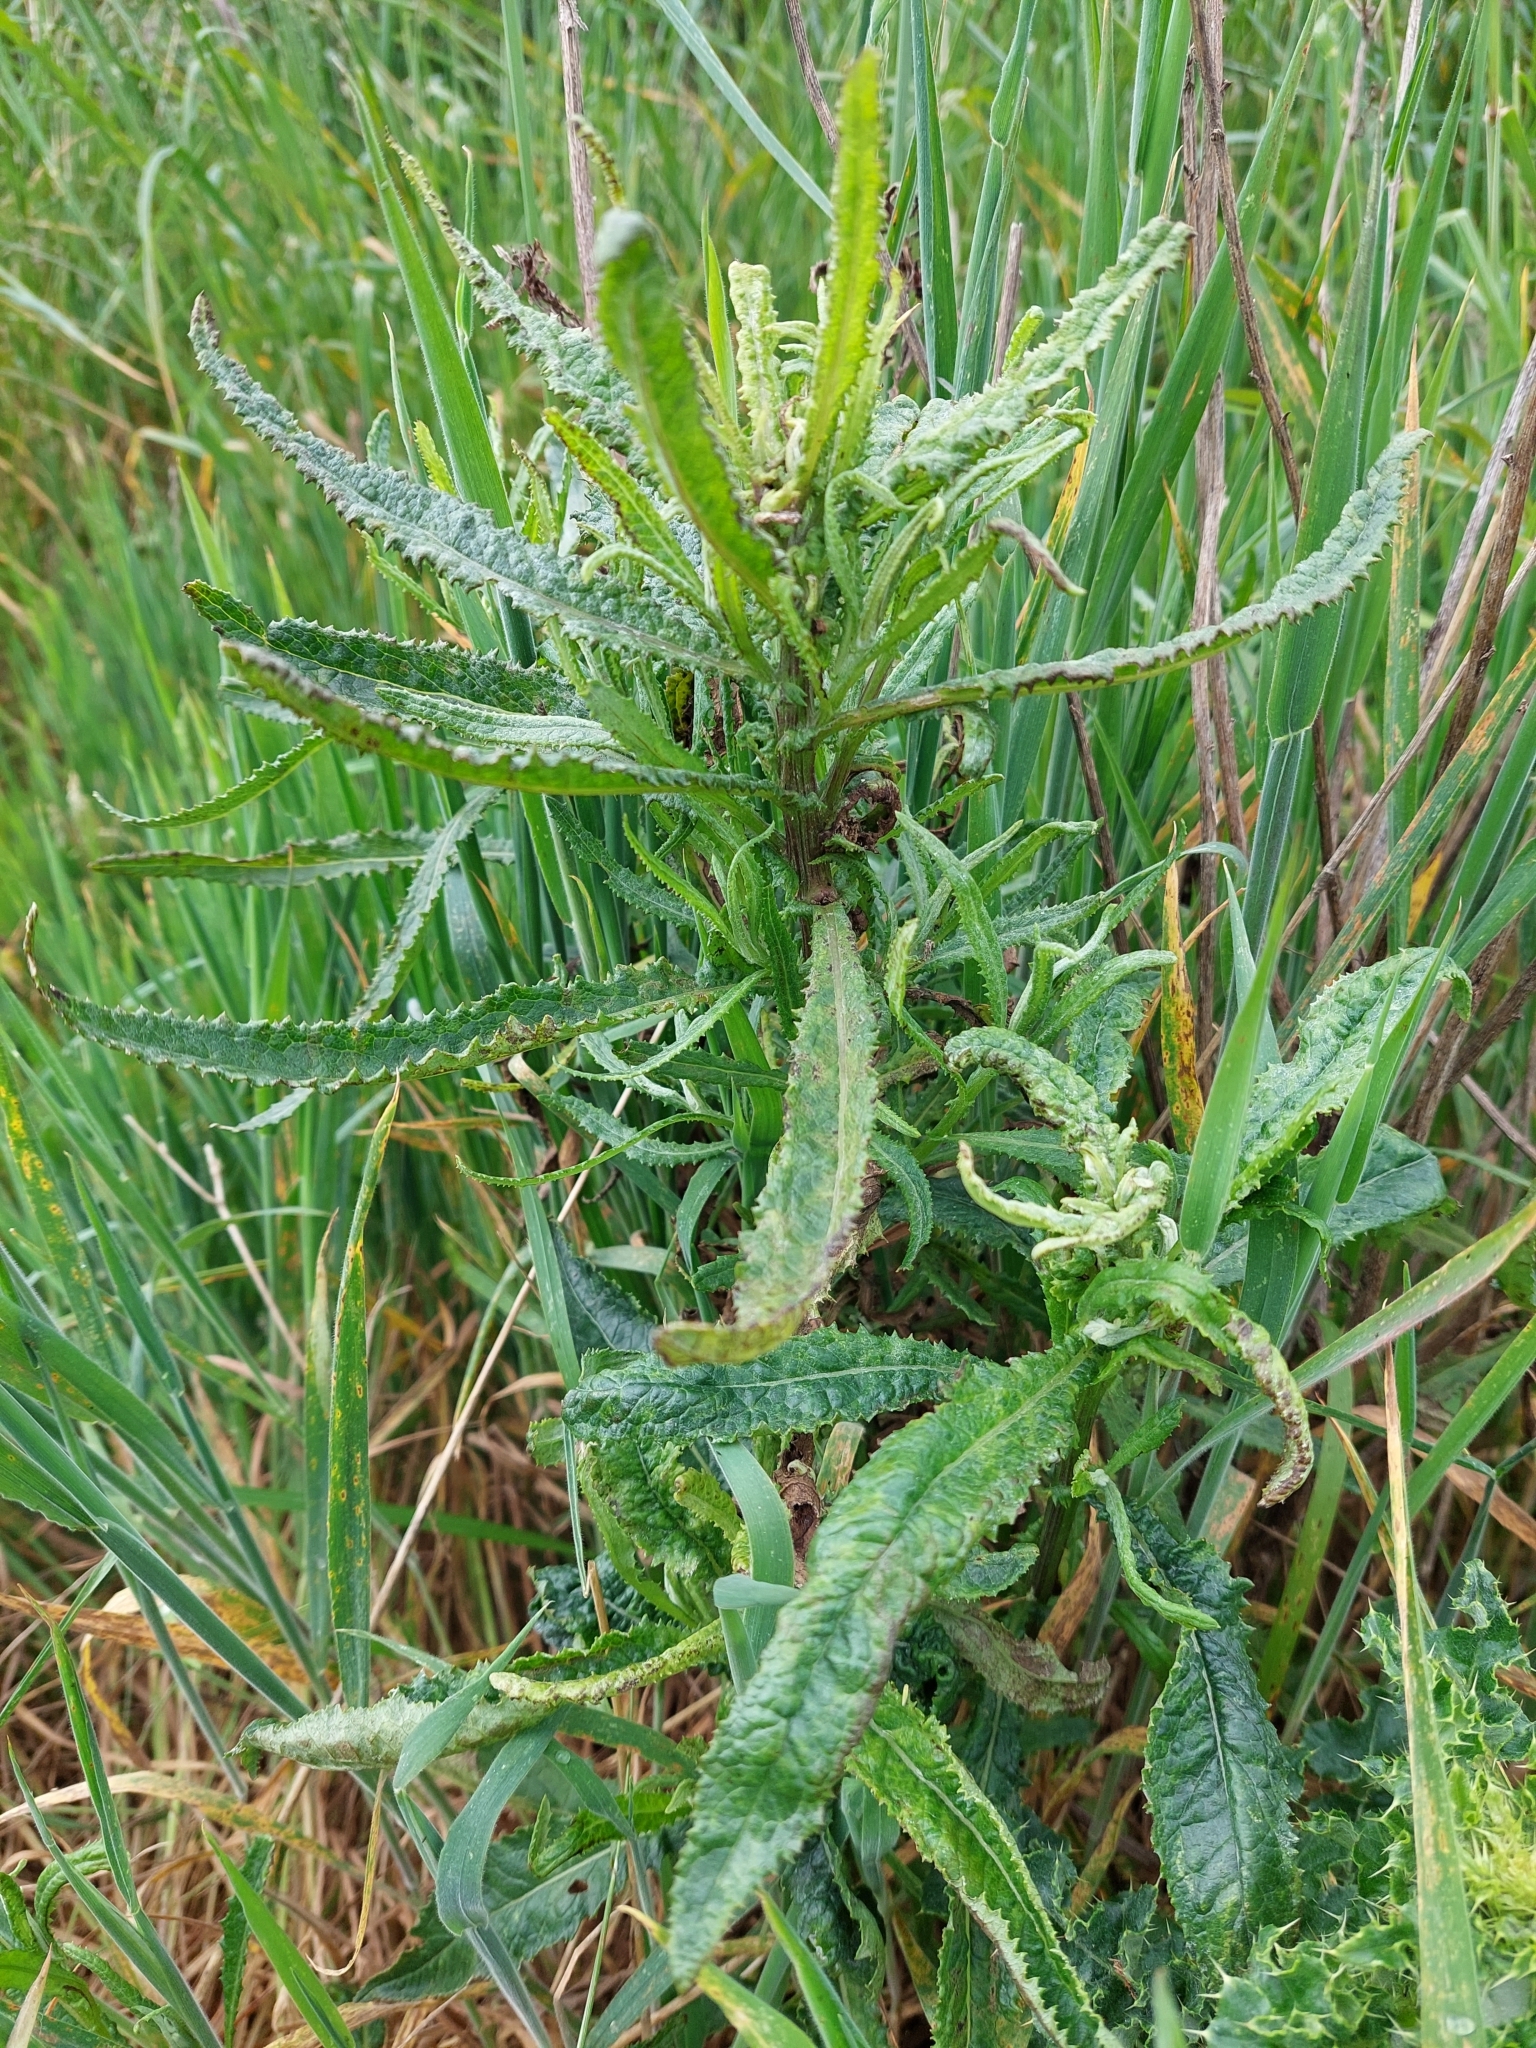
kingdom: Plantae
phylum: Tracheophyta
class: Magnoliopsida
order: Asterales
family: Asteraceae
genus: Senecio
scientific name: Senecio minimus
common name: Toothed fireweed
